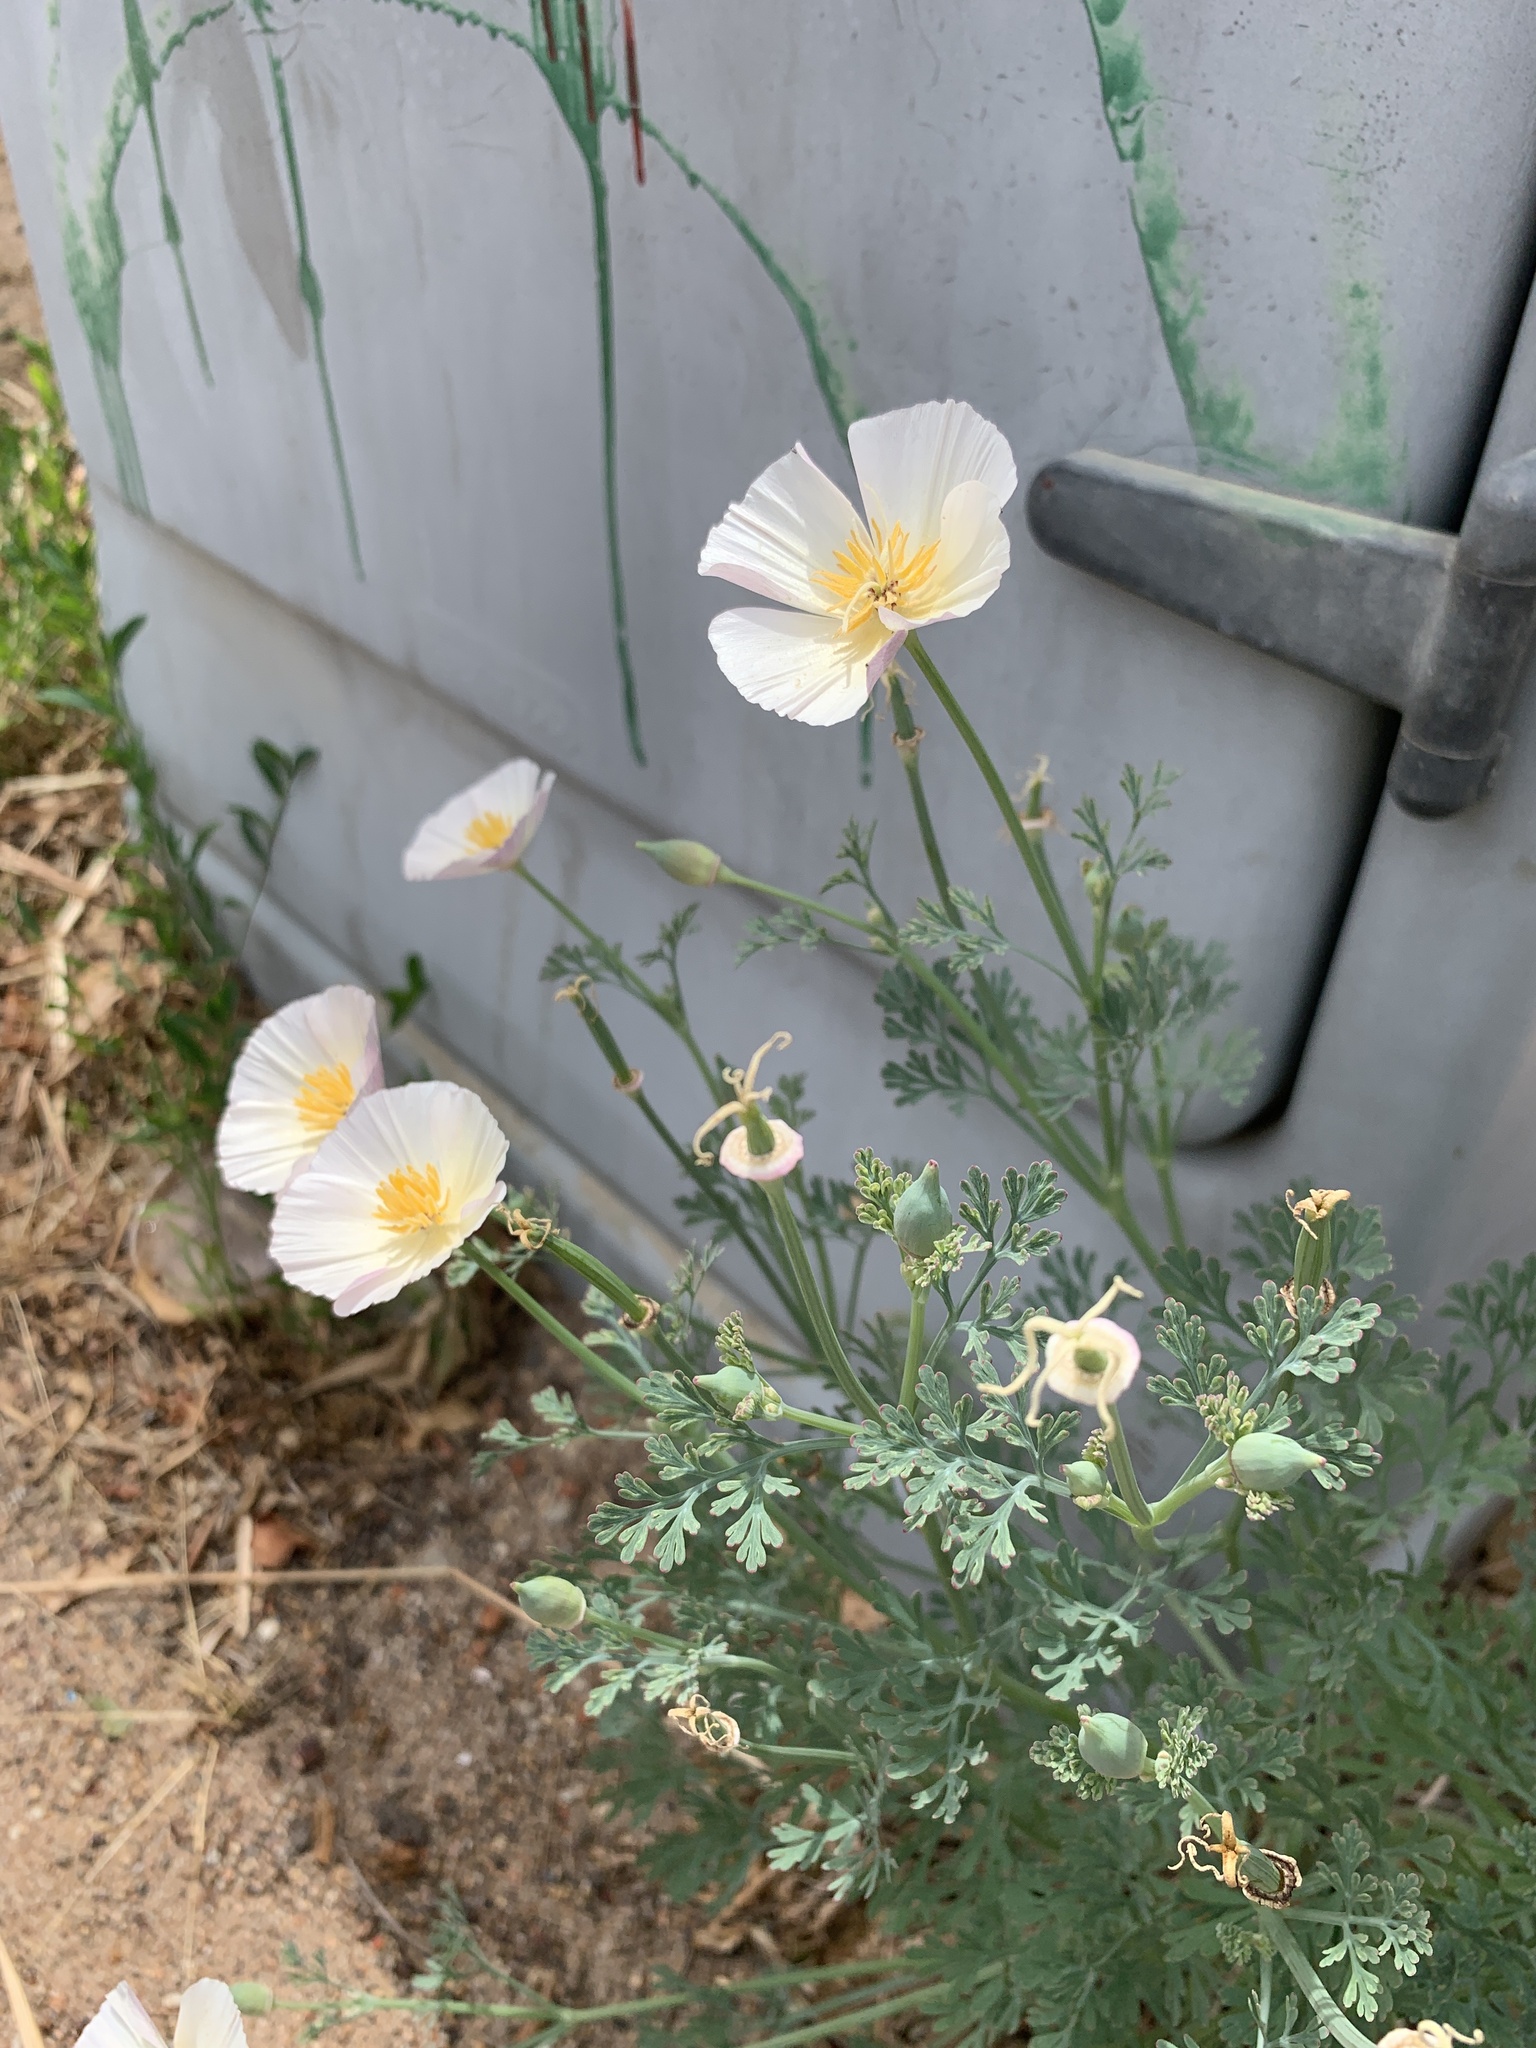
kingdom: Plantae
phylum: Tracheophyta
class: Magnoliopsida
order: Ranunculales
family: Papaveraceae
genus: Eschscholzia
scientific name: Eschscholzia californica
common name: California poppy
